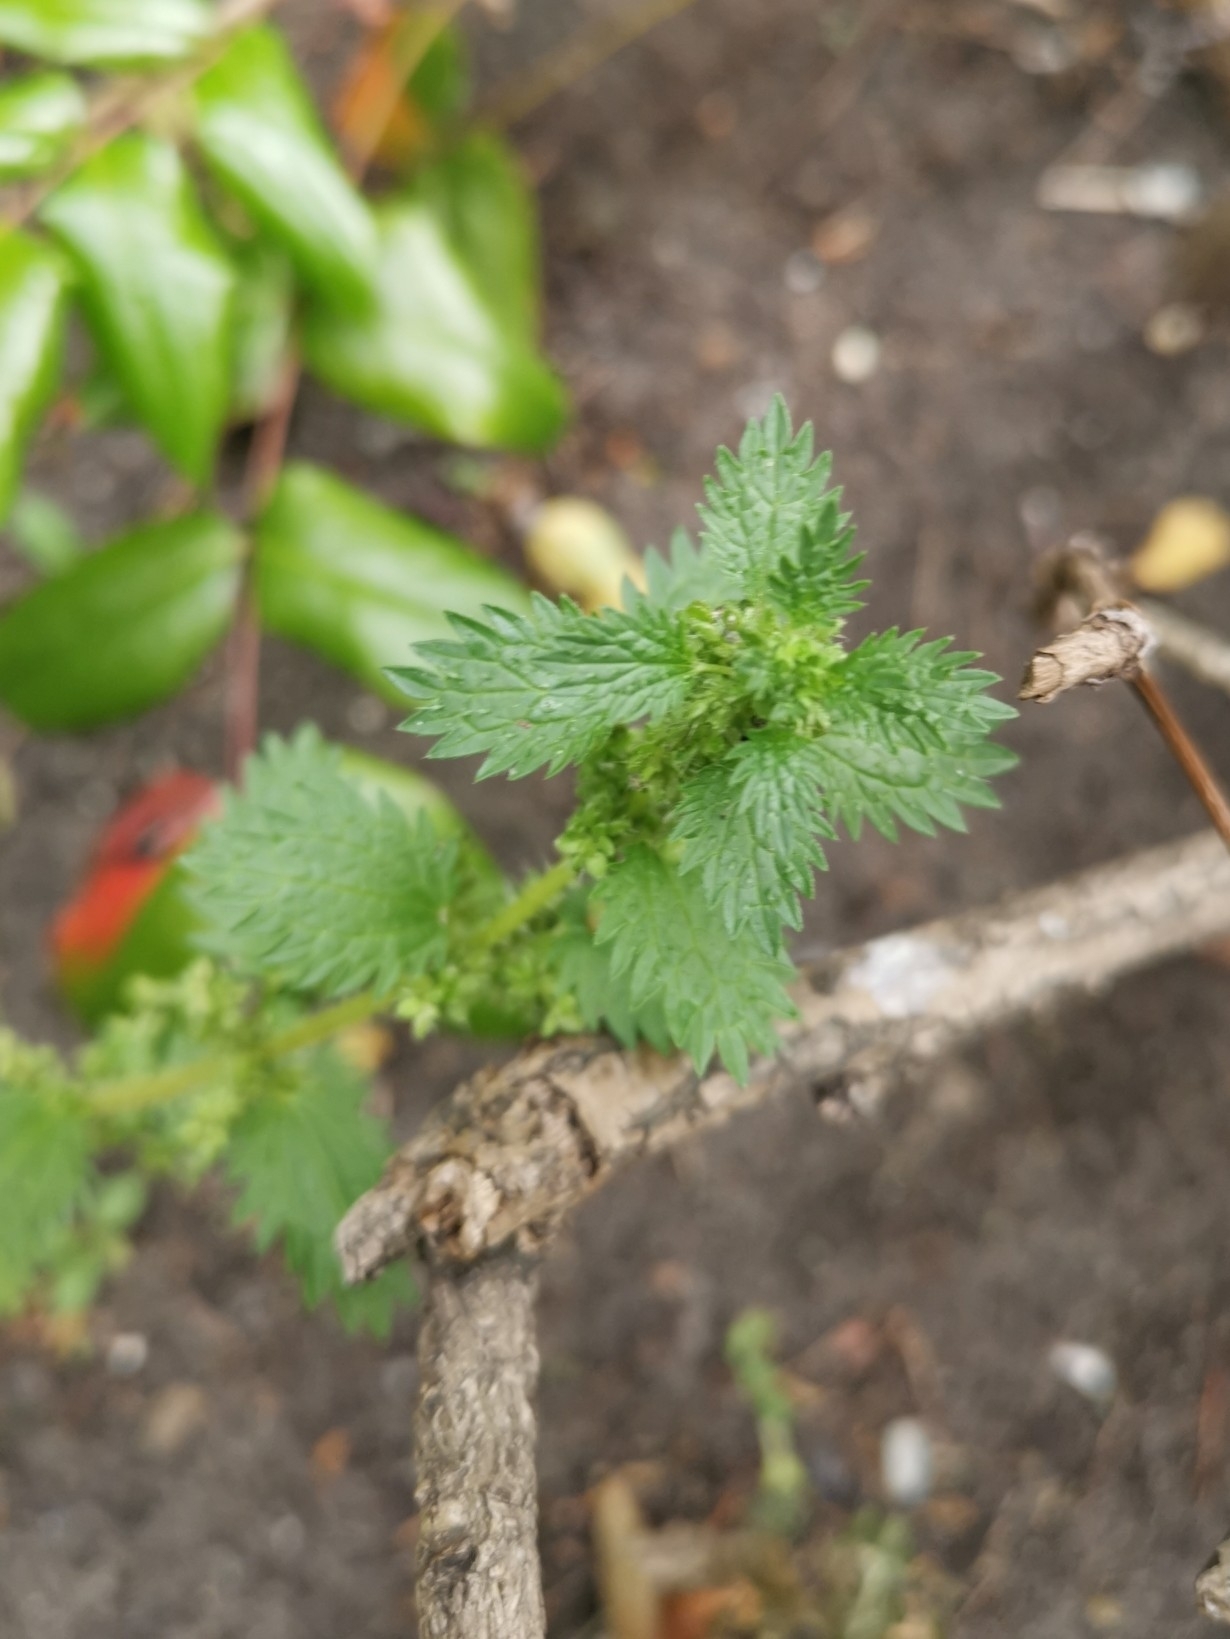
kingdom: Plantae
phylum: Tracheophyta
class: Magnoliopsida
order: Rosales
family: Urticaceae
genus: Urtica
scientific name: Urtica urens
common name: Dwarf nettle
